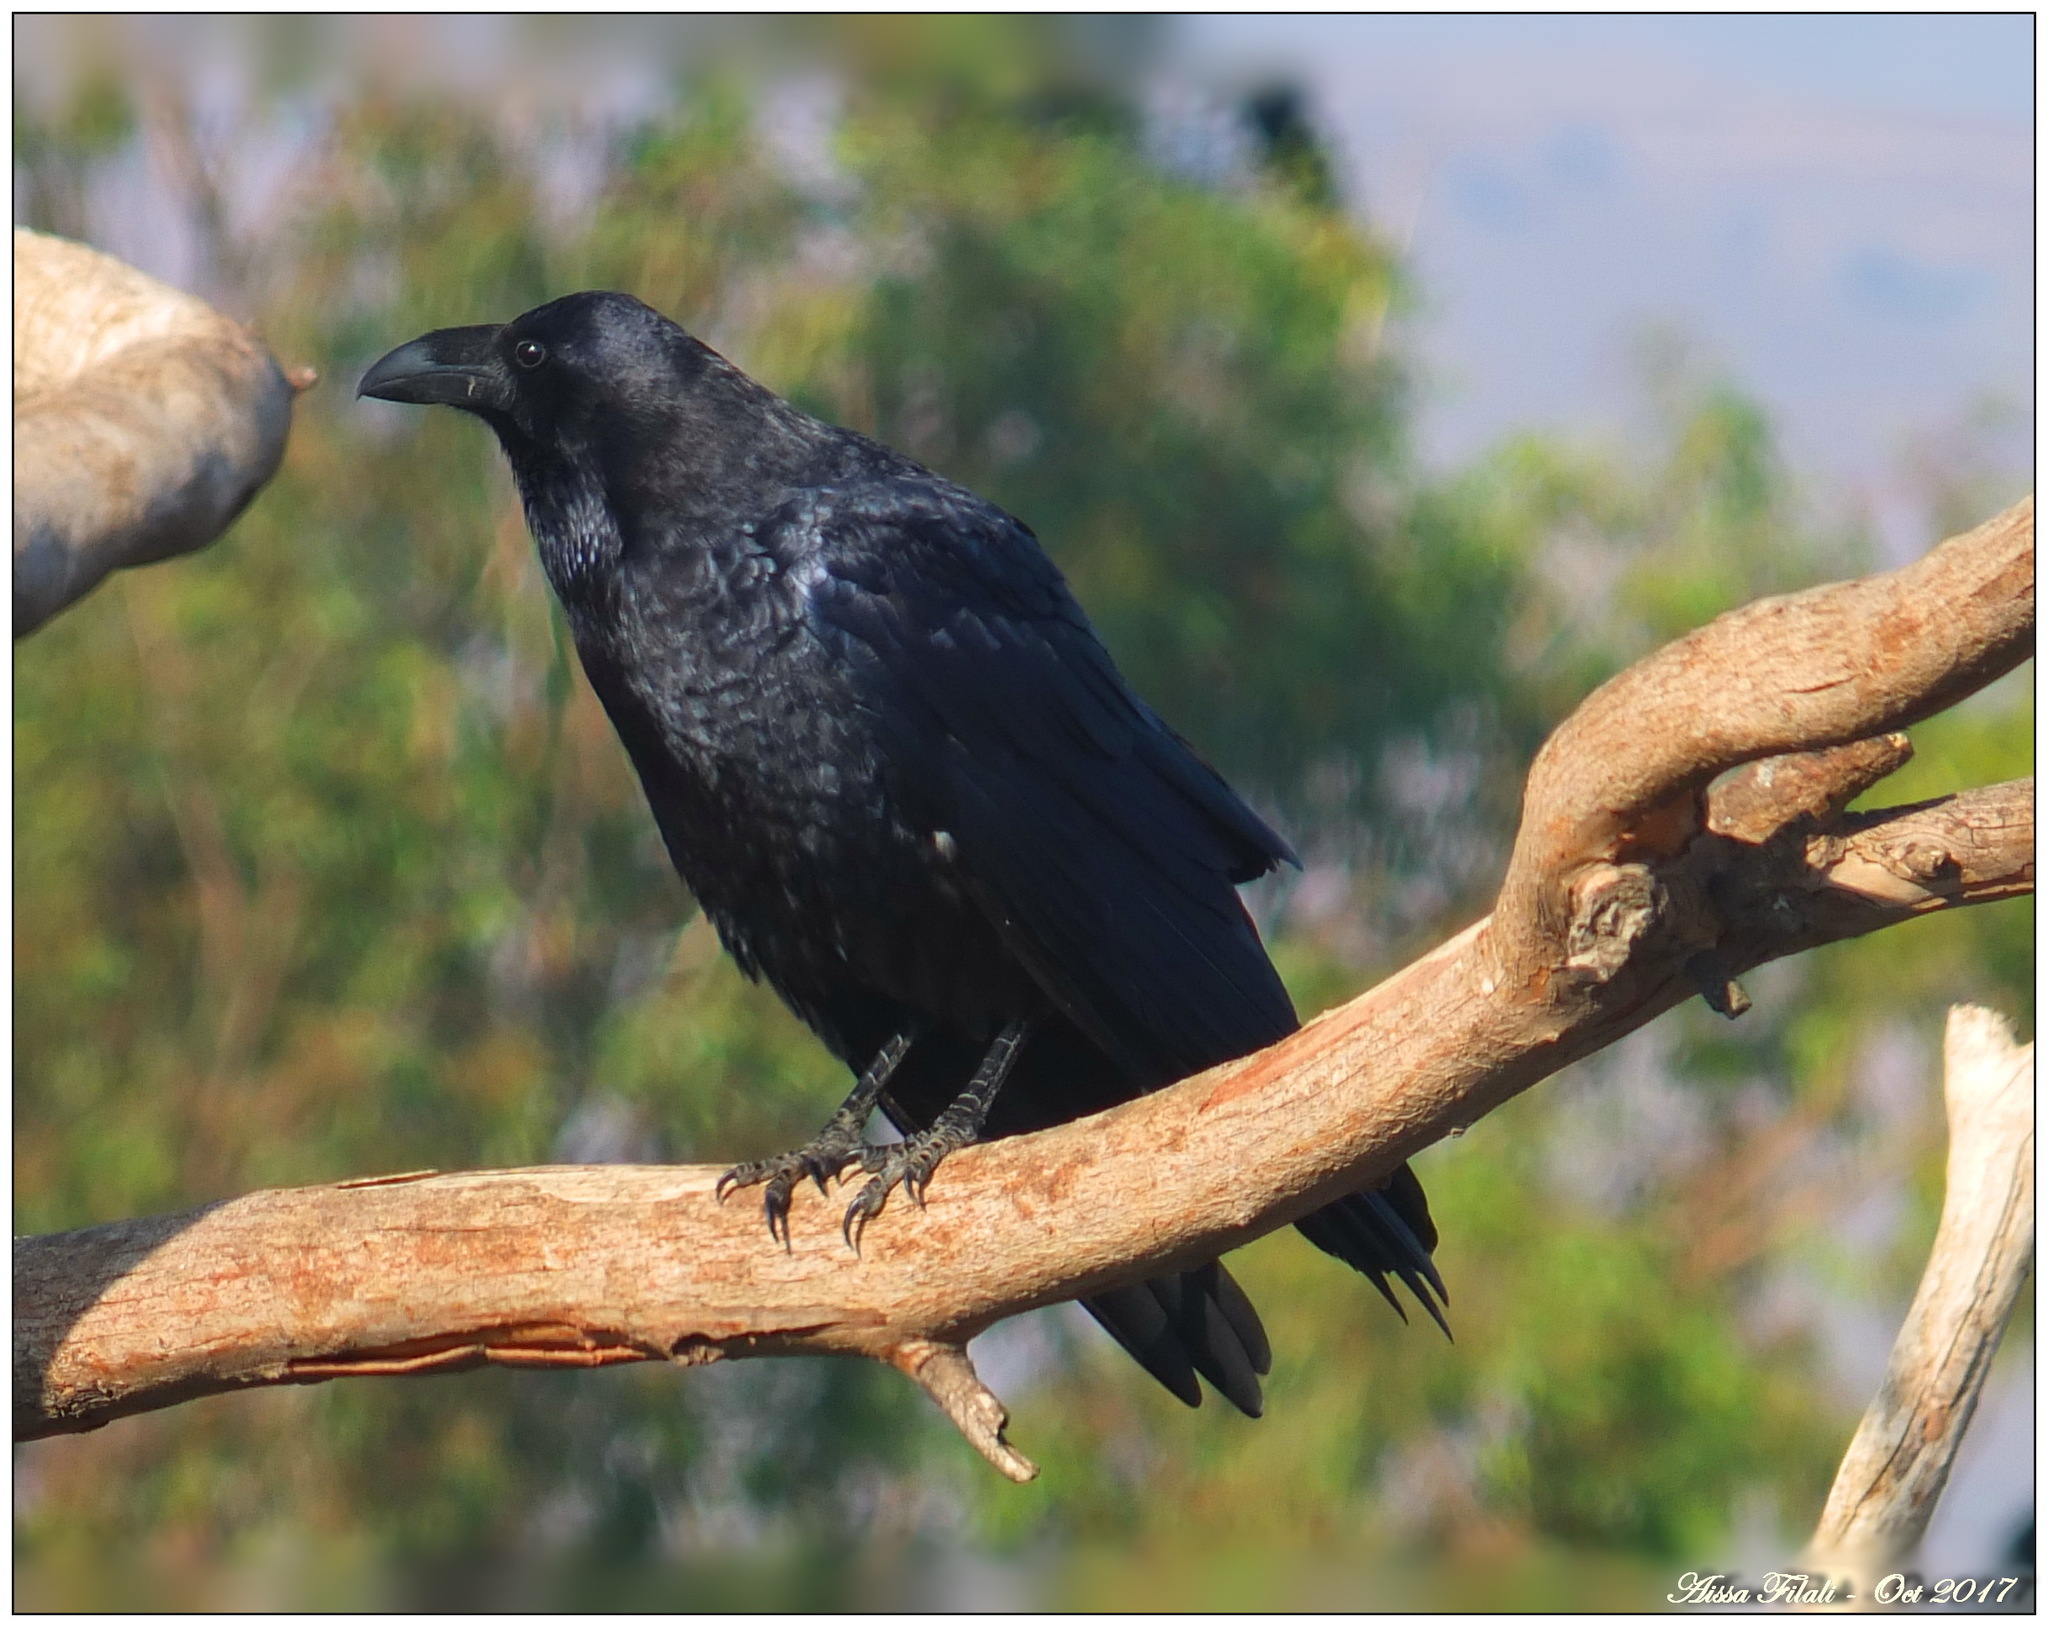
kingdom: Animalia
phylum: Chordata
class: Aves
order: Passeriformes
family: Corvidae
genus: Corvus
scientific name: Corvus corax
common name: Common raven
